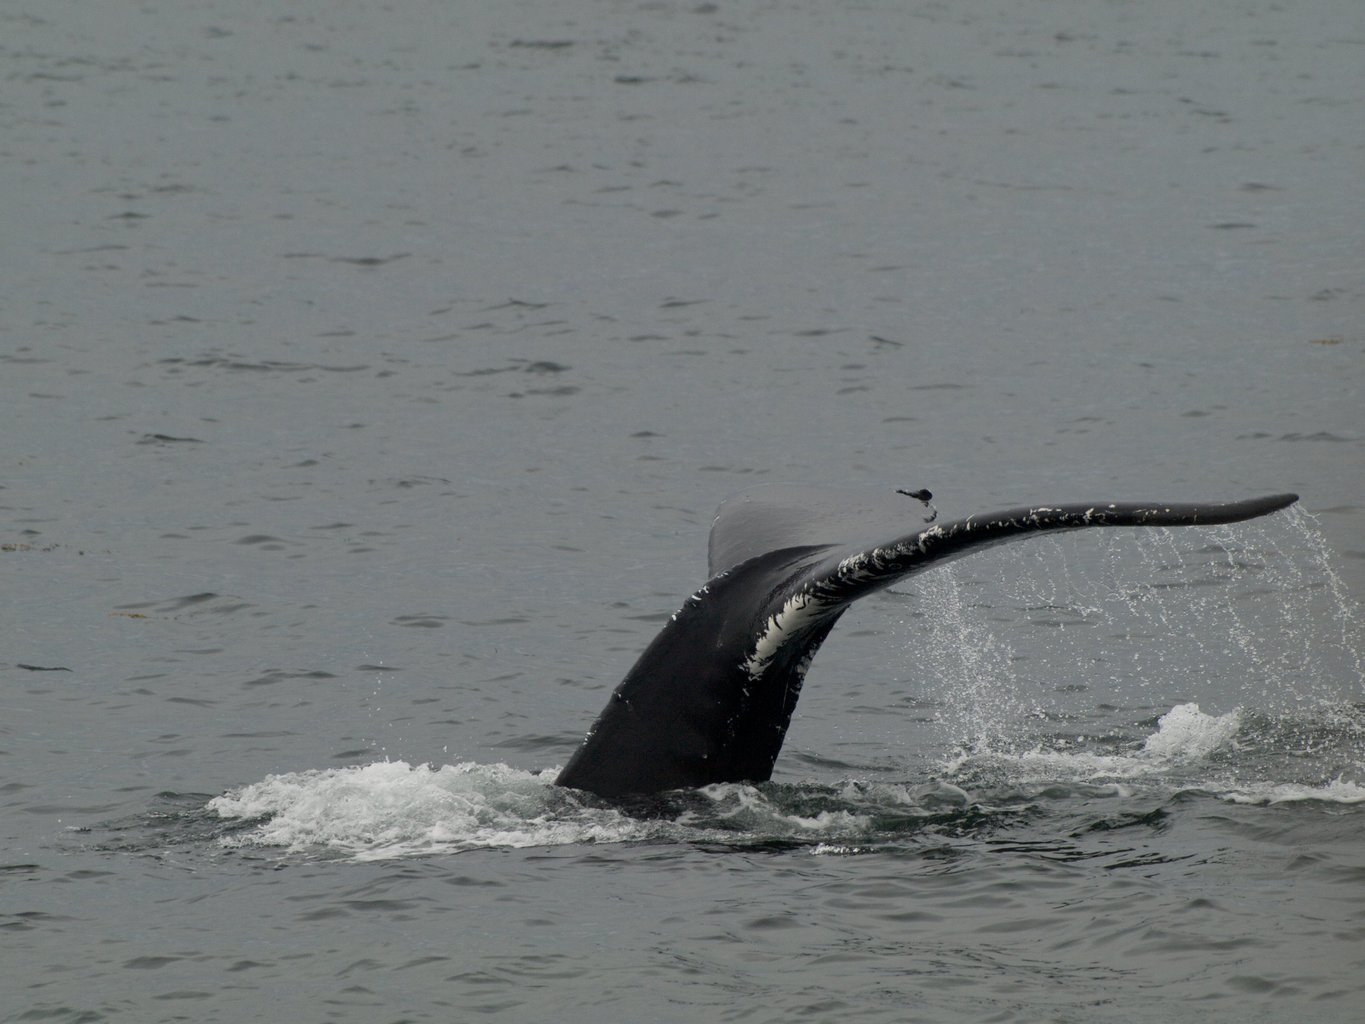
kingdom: Animalia
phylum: Chordata
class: Mammalia
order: Cetacea
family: Balaenopteridae
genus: Megaptera
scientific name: Megaptera novaeangliae
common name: Humpback whale
